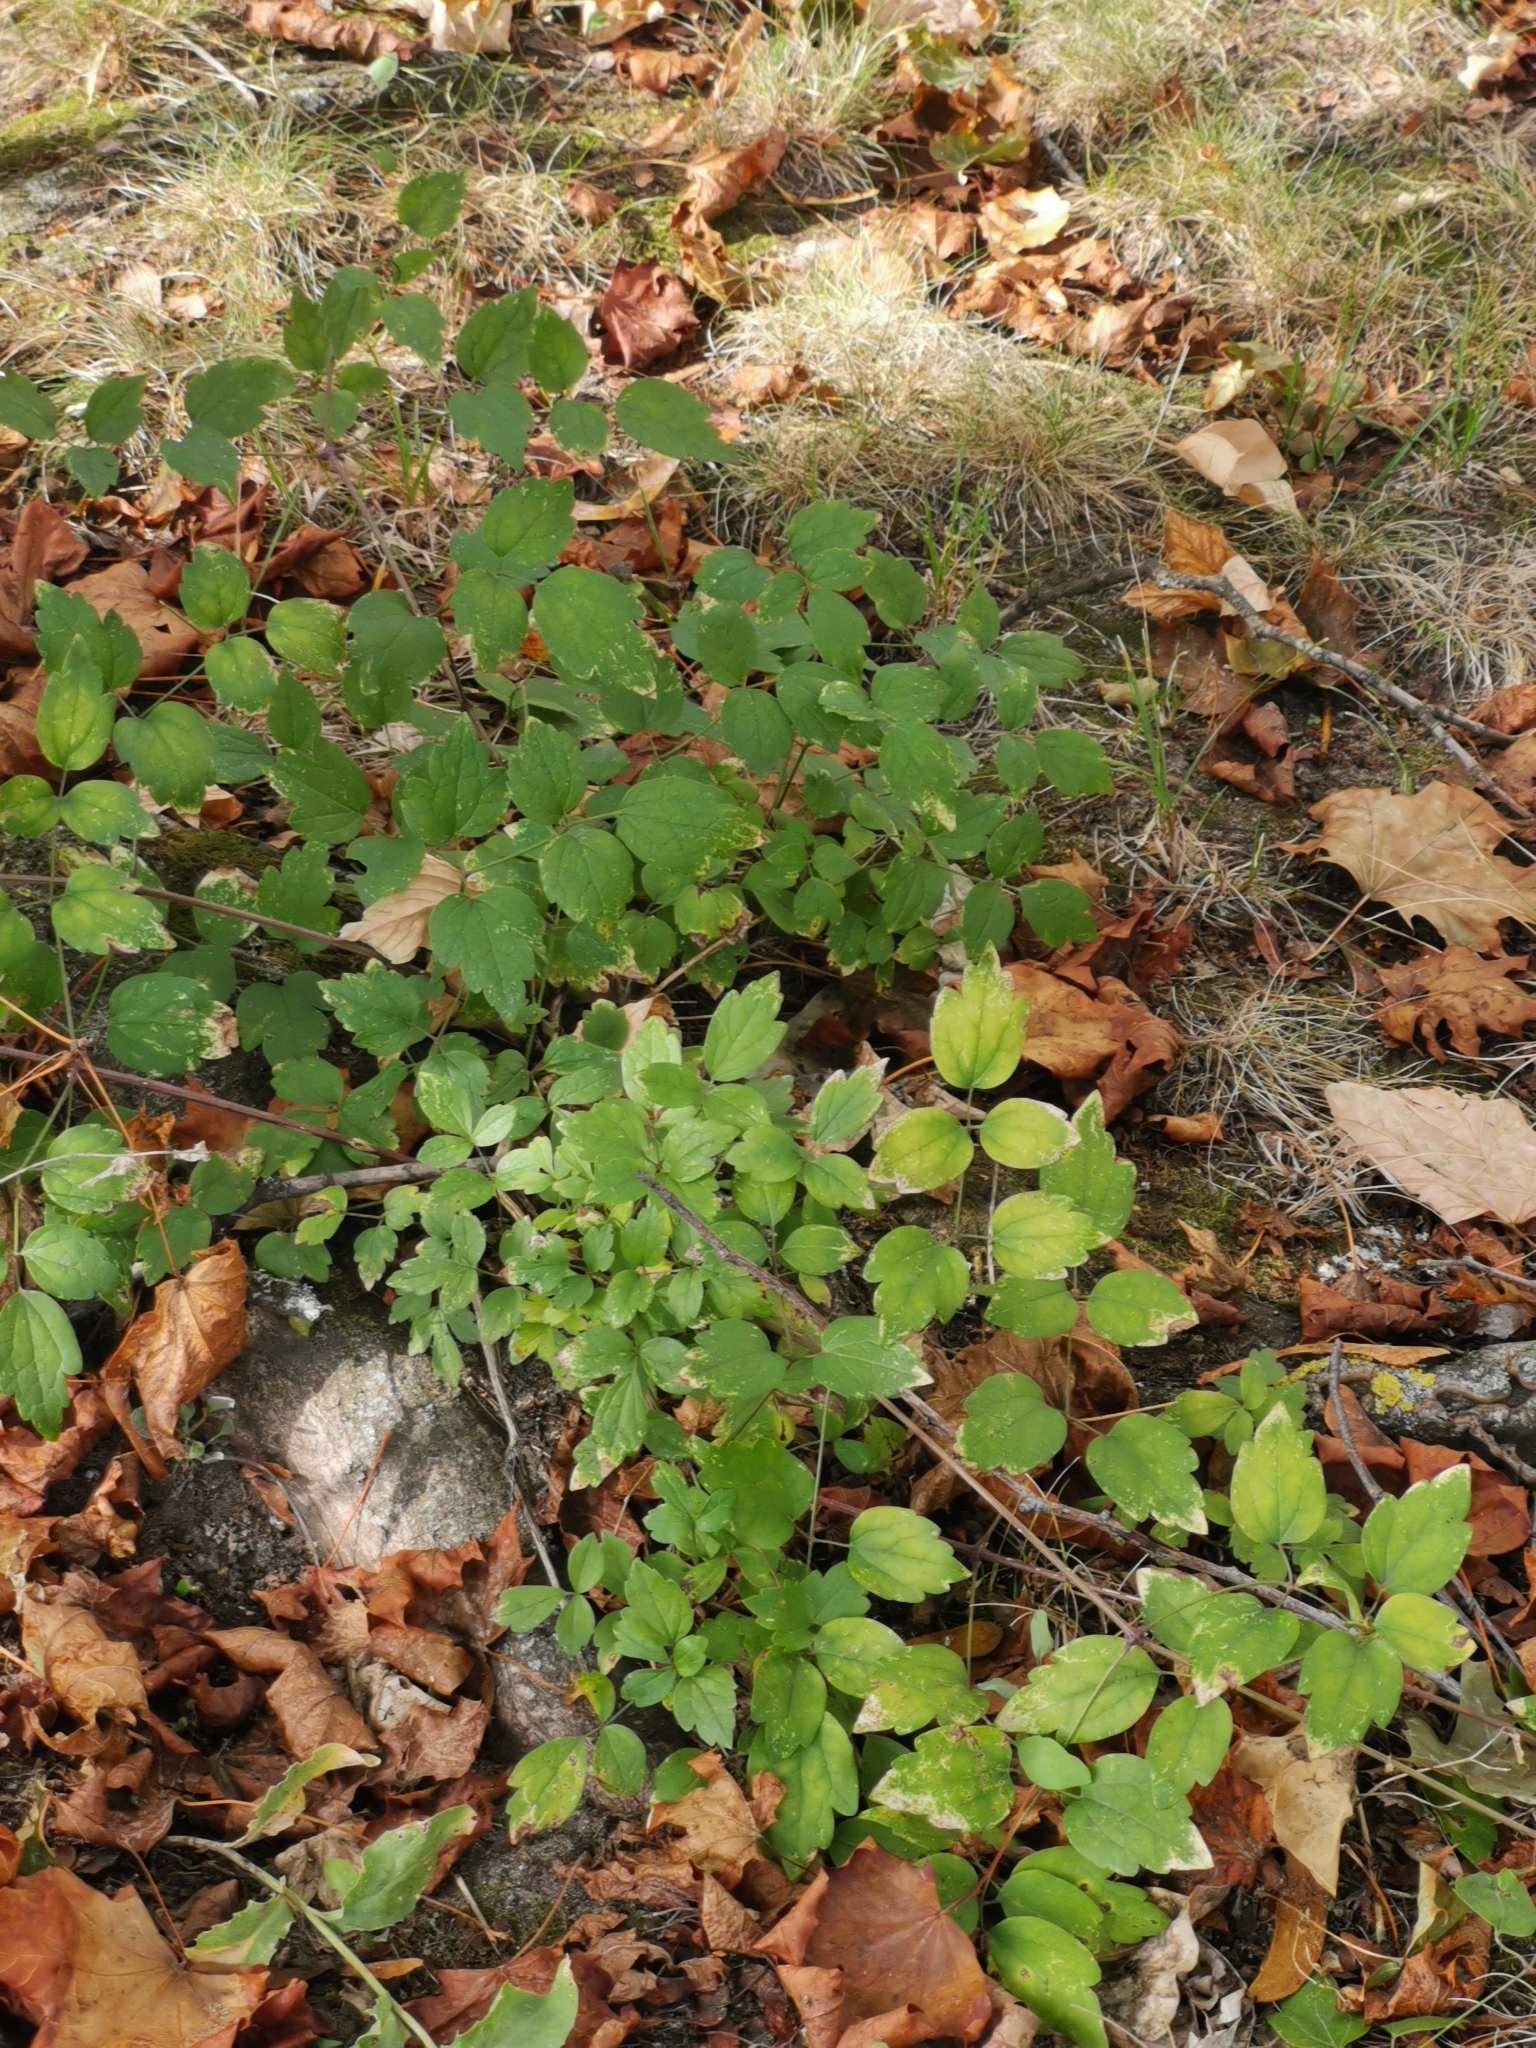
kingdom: Plantae
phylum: Tracheophyta
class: Magnoliopsida
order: Ranunculales
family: Ranunculaceae
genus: Clematis
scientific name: Clematis vitalba
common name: Evergreen clematis
